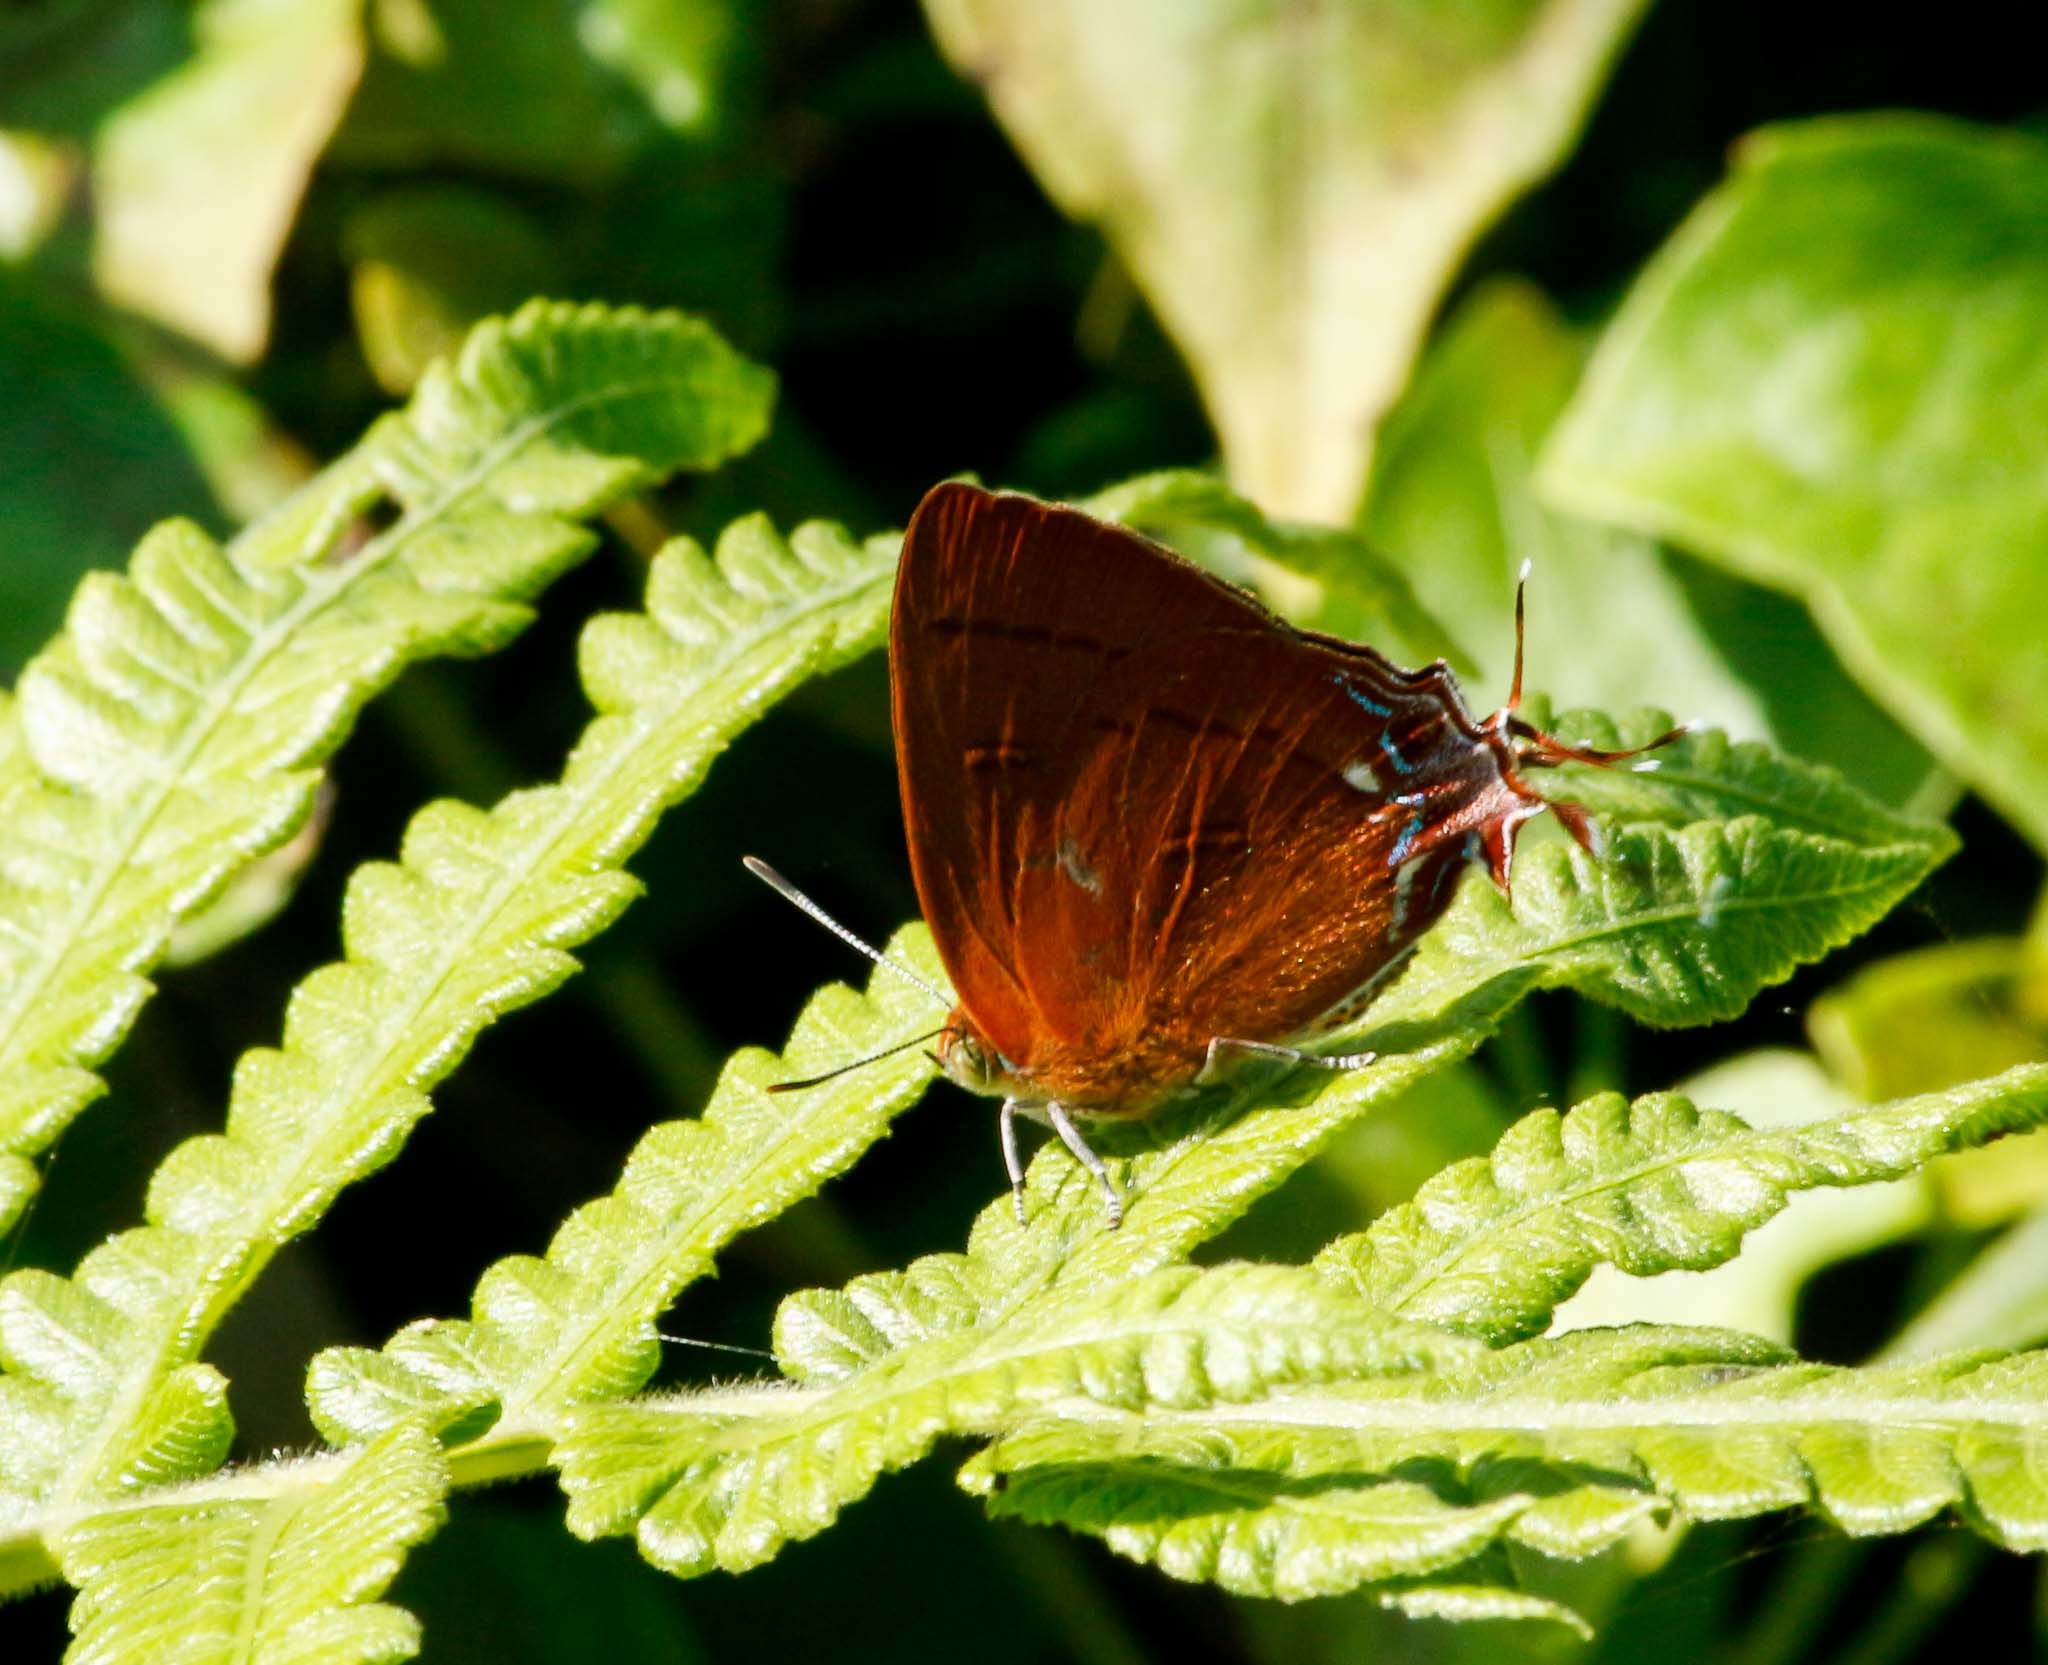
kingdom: Animalia
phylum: Arthropoda
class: Insecta
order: Lepidoptera
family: Lycaenidae
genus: Remelana
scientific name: Remelana jangala
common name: Chocolate royal
